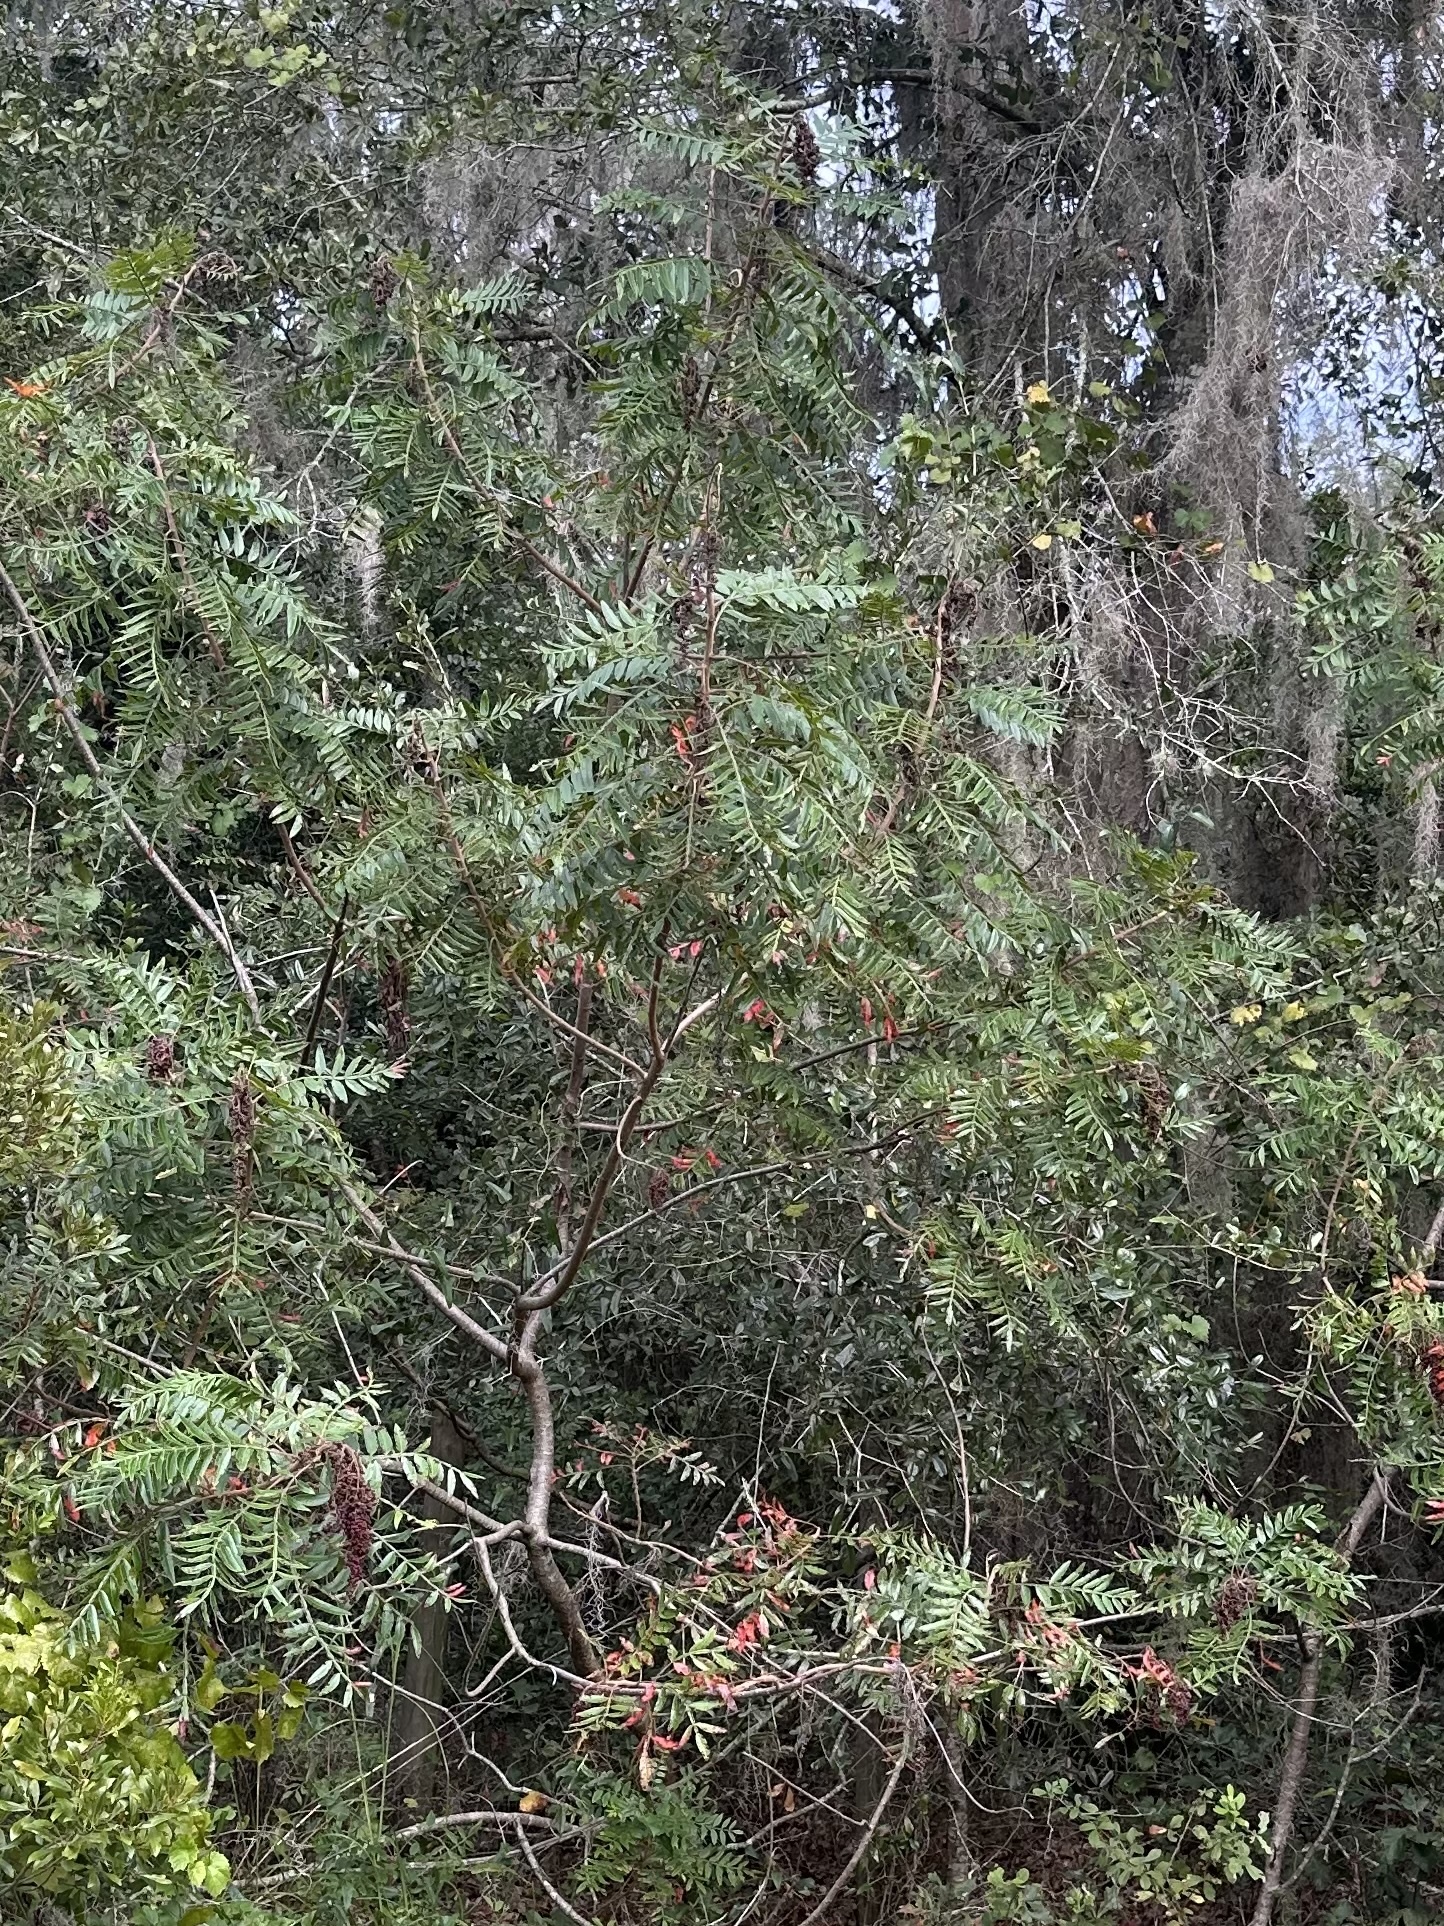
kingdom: Plantae
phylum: Tracheophyta
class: Magnoliopsida
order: Sapindales
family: Anacardiaceae
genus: Rhus
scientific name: Rhus copallina
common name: Shining sumac
